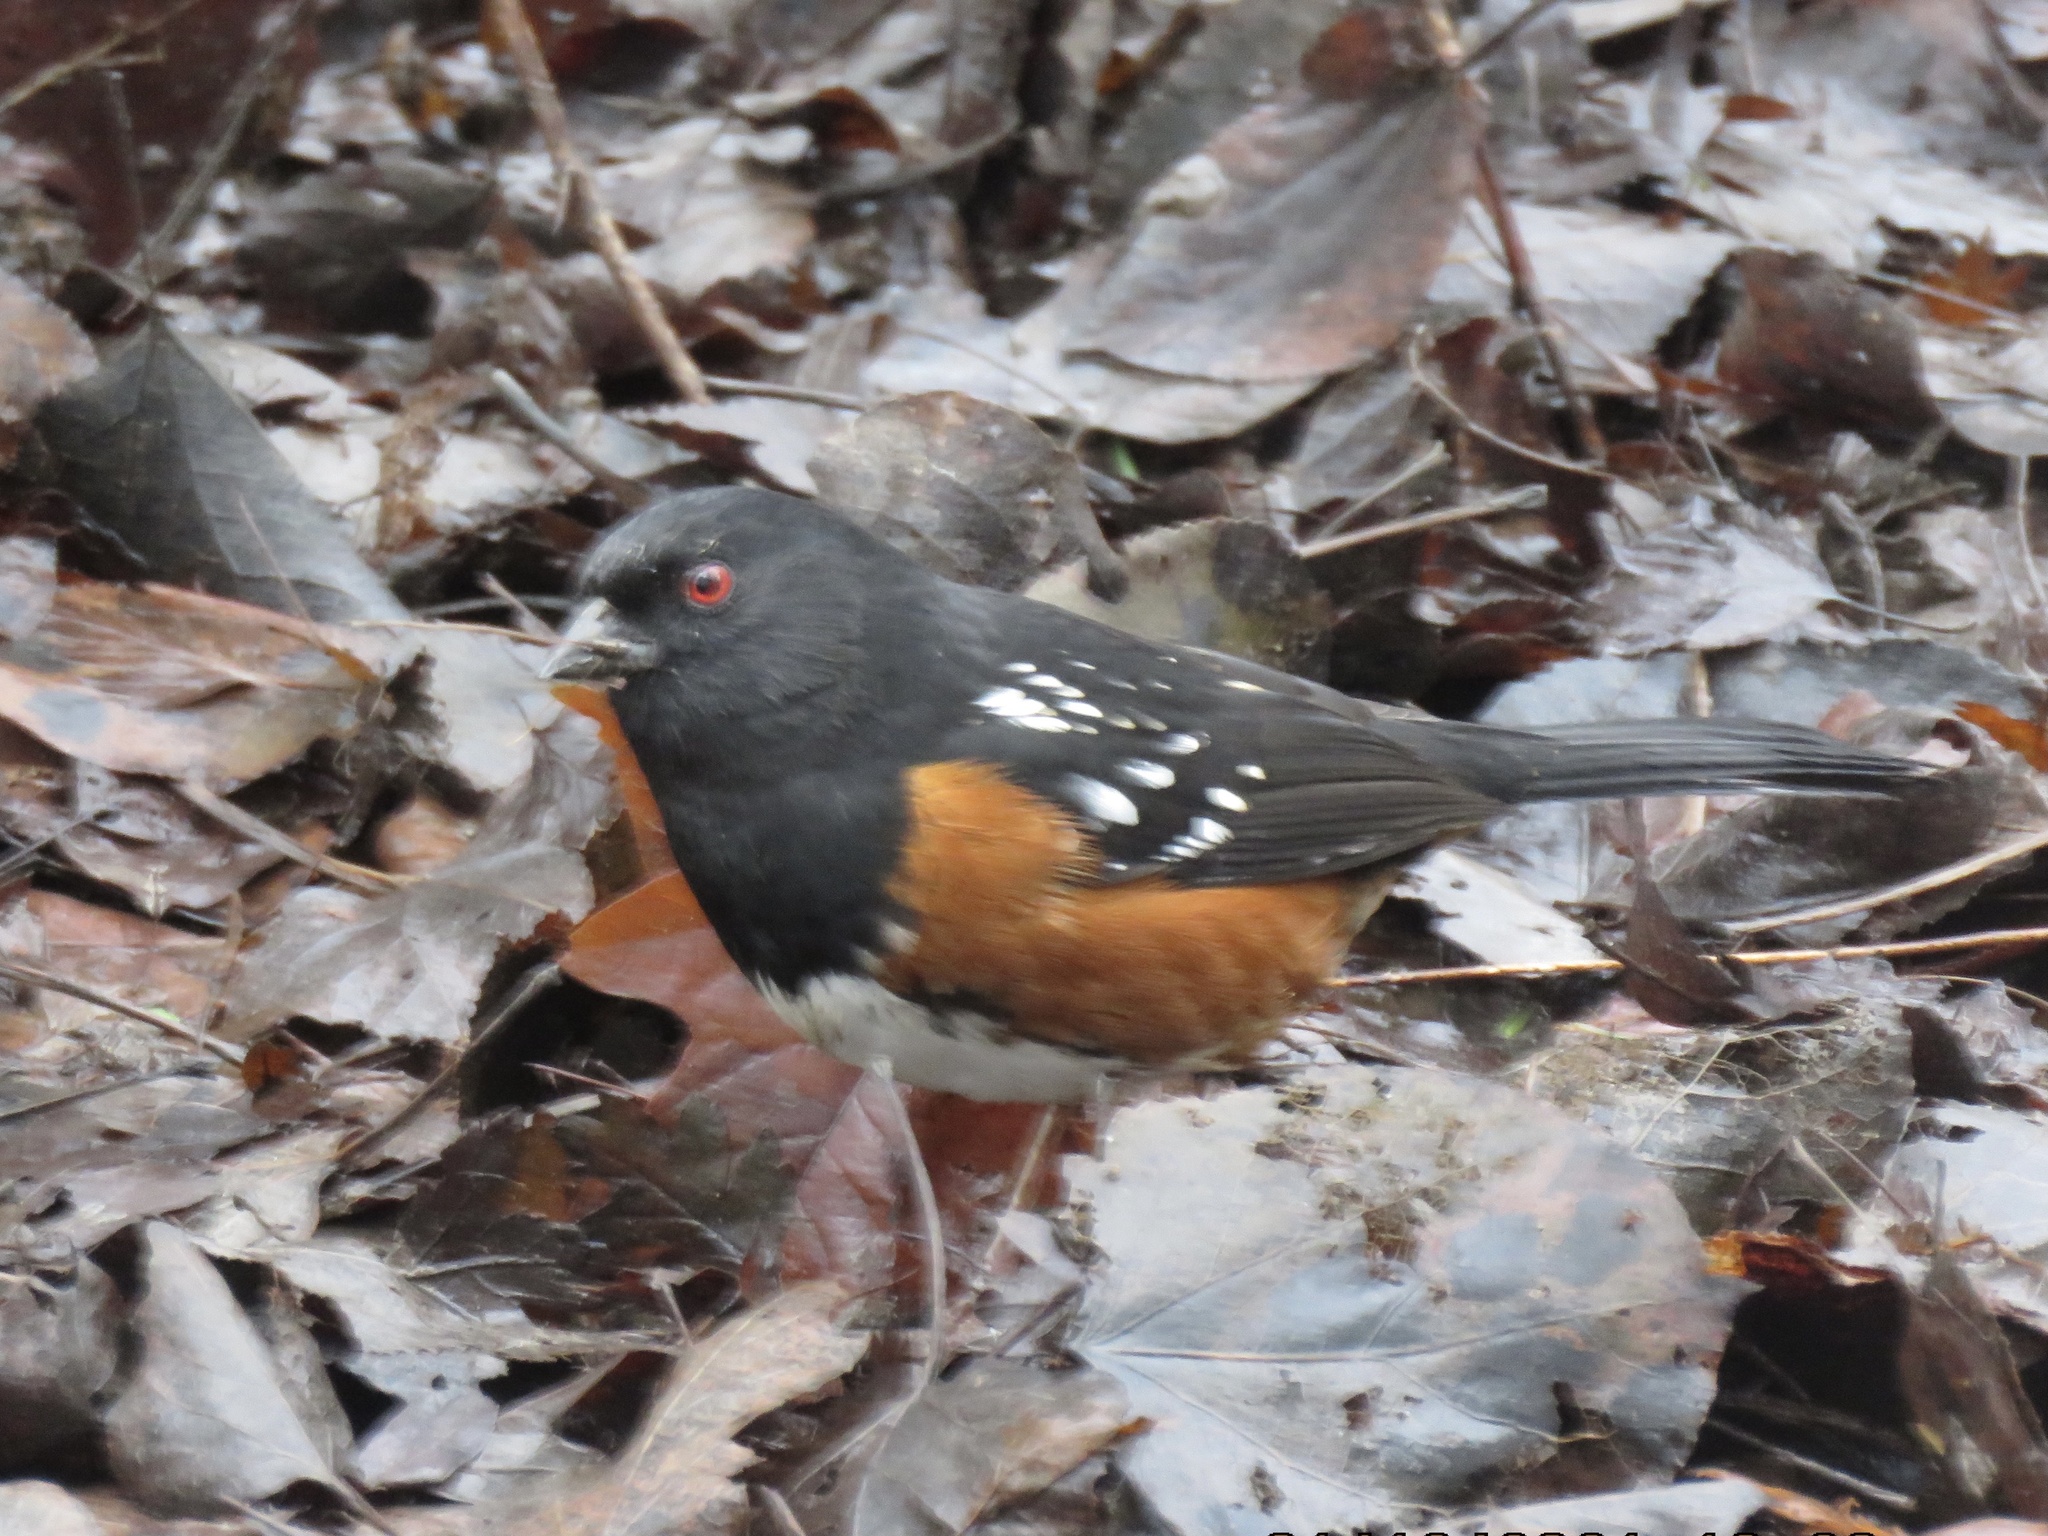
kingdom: Animalia
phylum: Chordata
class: Aves
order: Passeriformes
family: Passerellidae
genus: Pipilo
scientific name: Pipilo maculatus
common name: Spotted towhee
